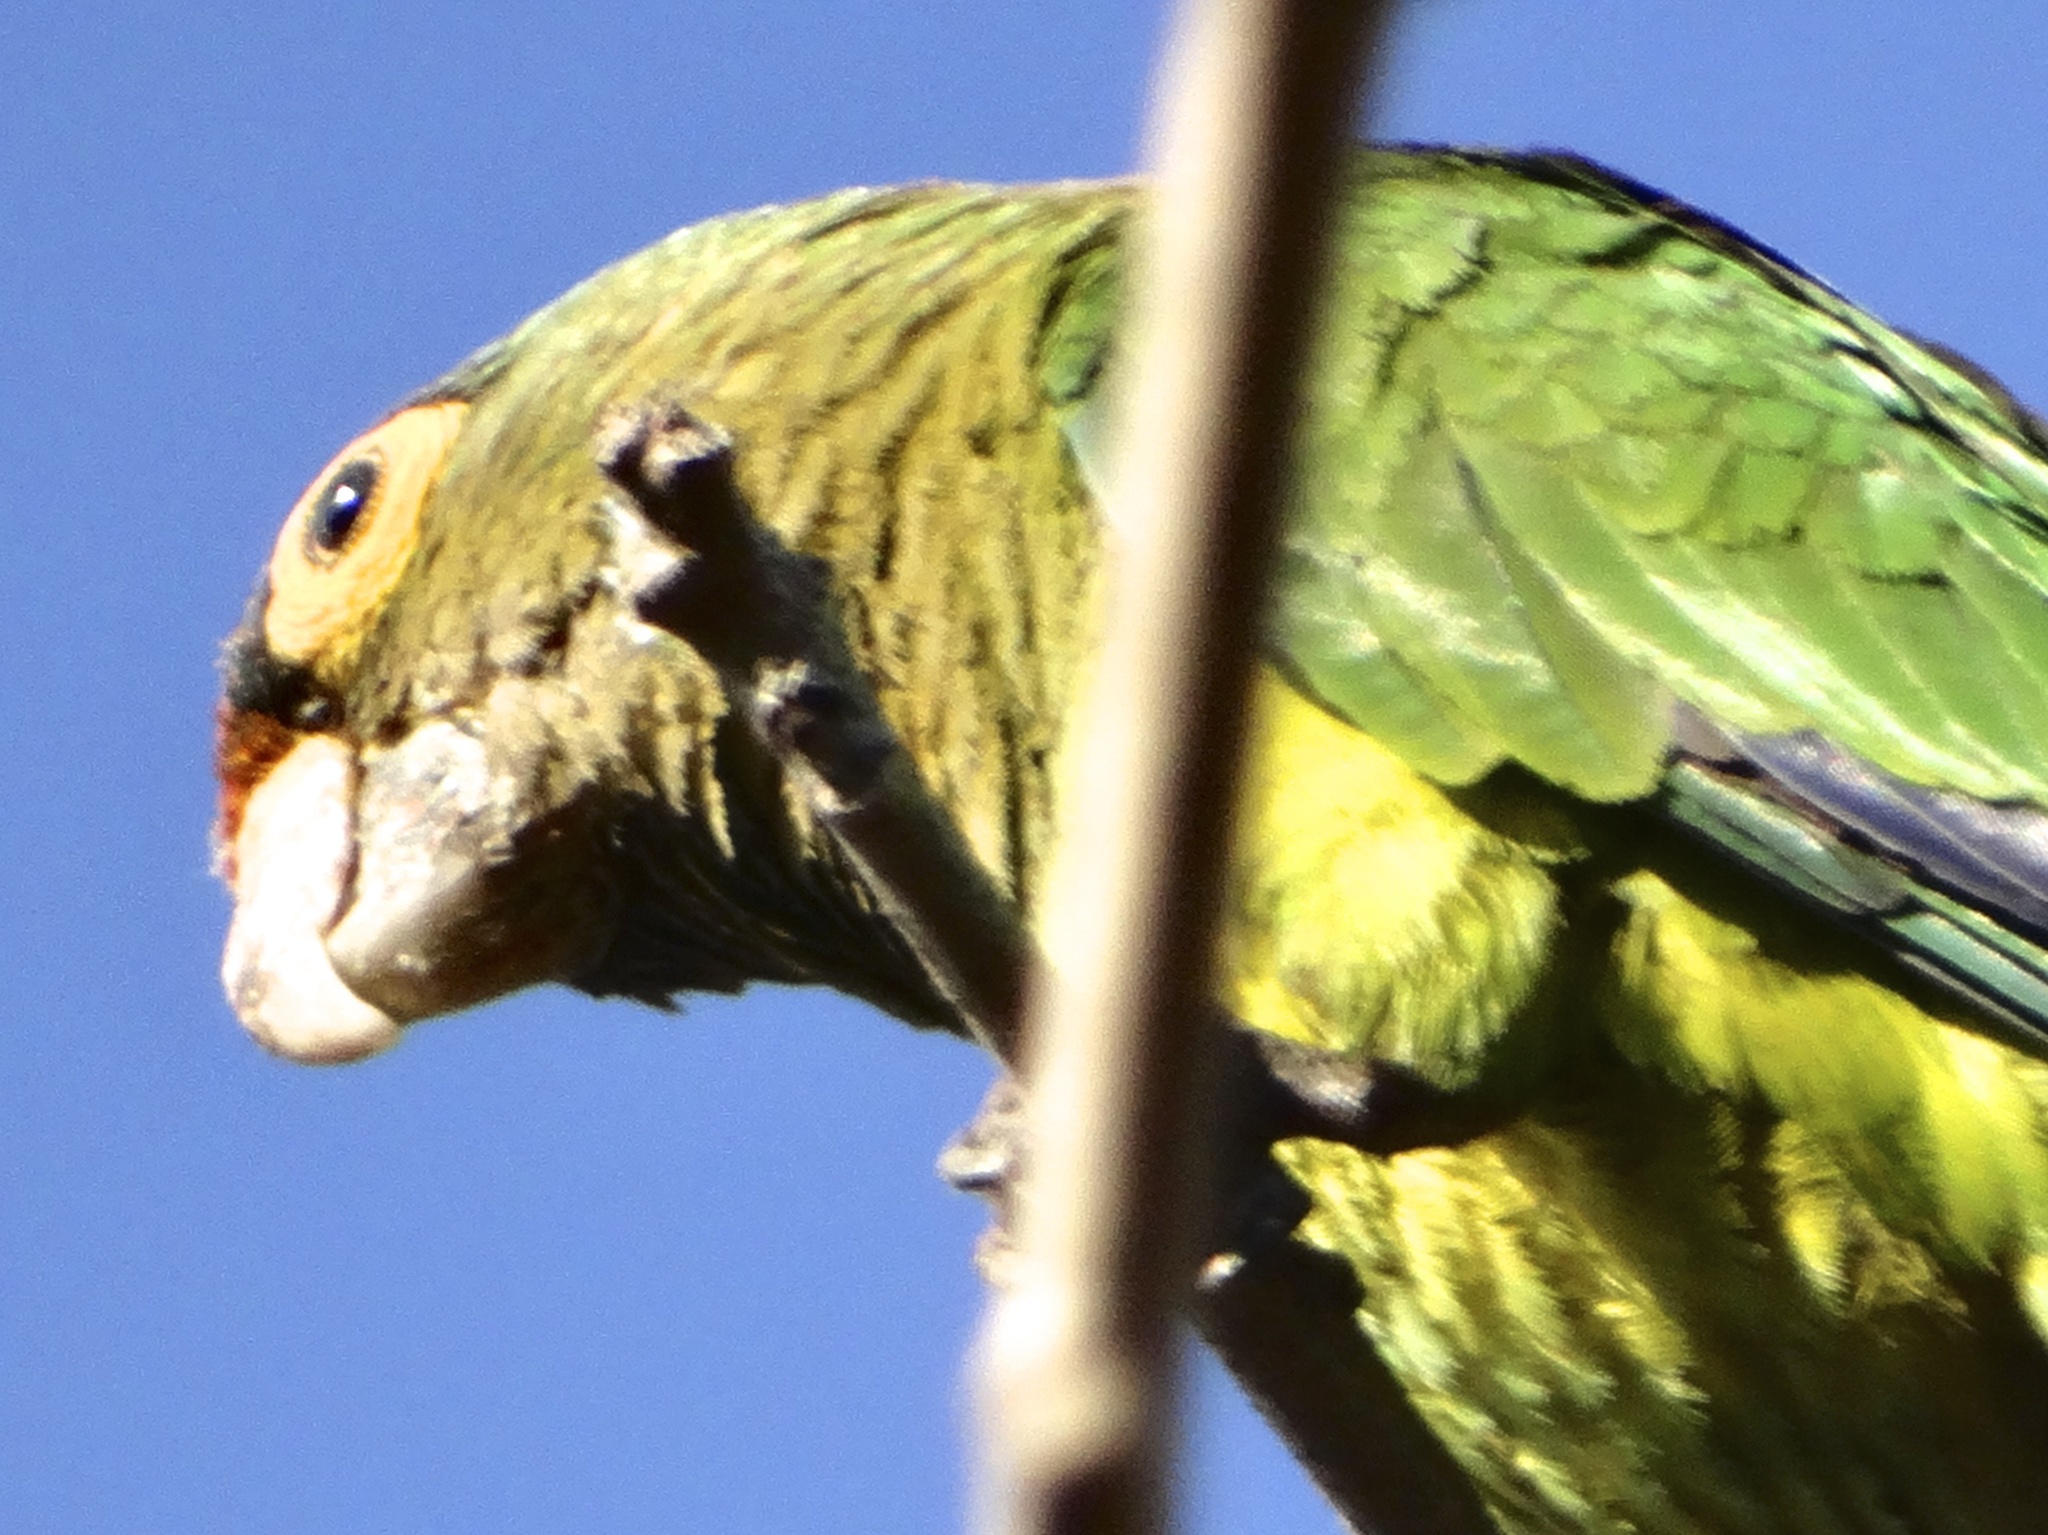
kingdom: Animalia
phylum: Chordata
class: Aves
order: Psittaciformes
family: Psittacidae
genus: Aratinga
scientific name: Aratinga canicularis
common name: Orange-fronted parakeet
